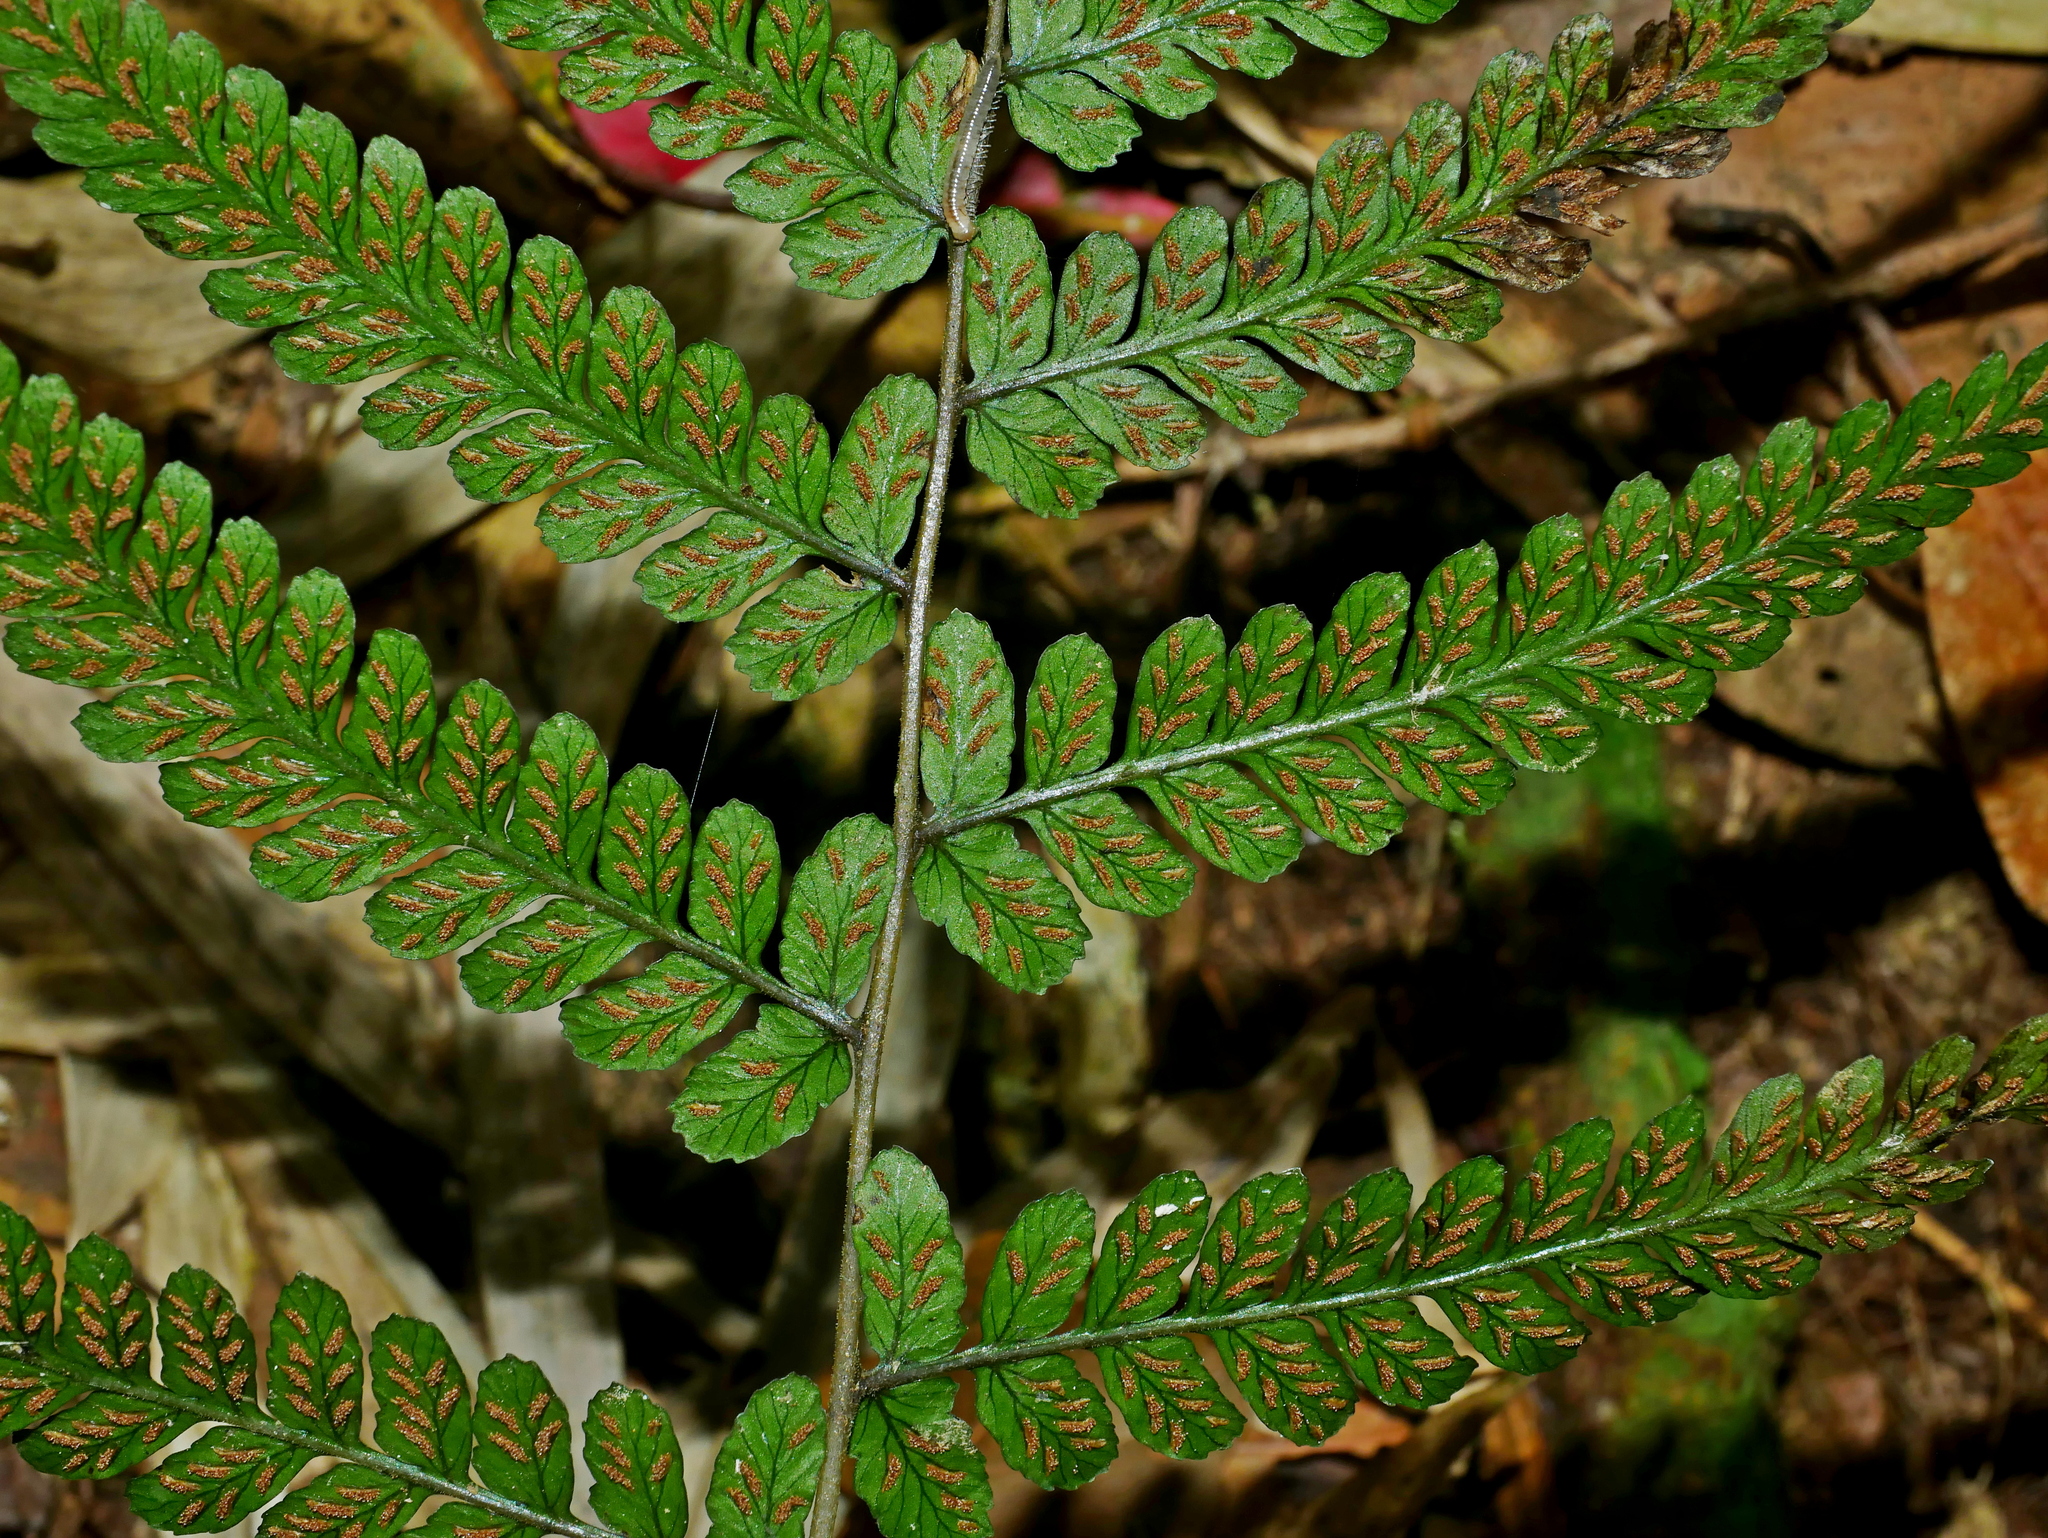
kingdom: Plantae
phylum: Tracheophyta
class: Polypodiopsida
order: Polypodiales
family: Athyriaceae
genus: Athyrium
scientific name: Athyrium arisanense
